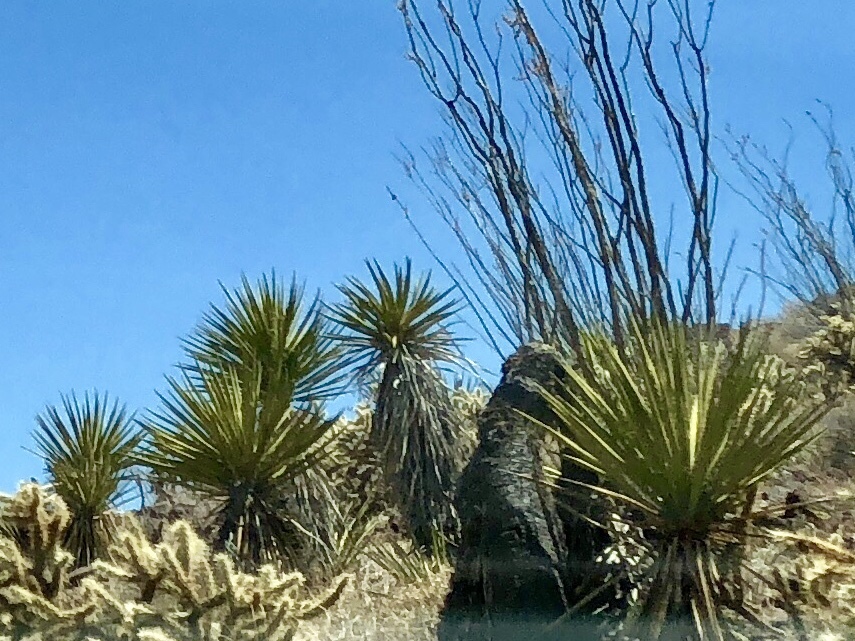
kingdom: Plantae
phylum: Tracheophyta
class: Liliopsida
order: Asparagales
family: Asparagaceae
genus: Yucca
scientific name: Yucca schidigera
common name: Mojave yucca
